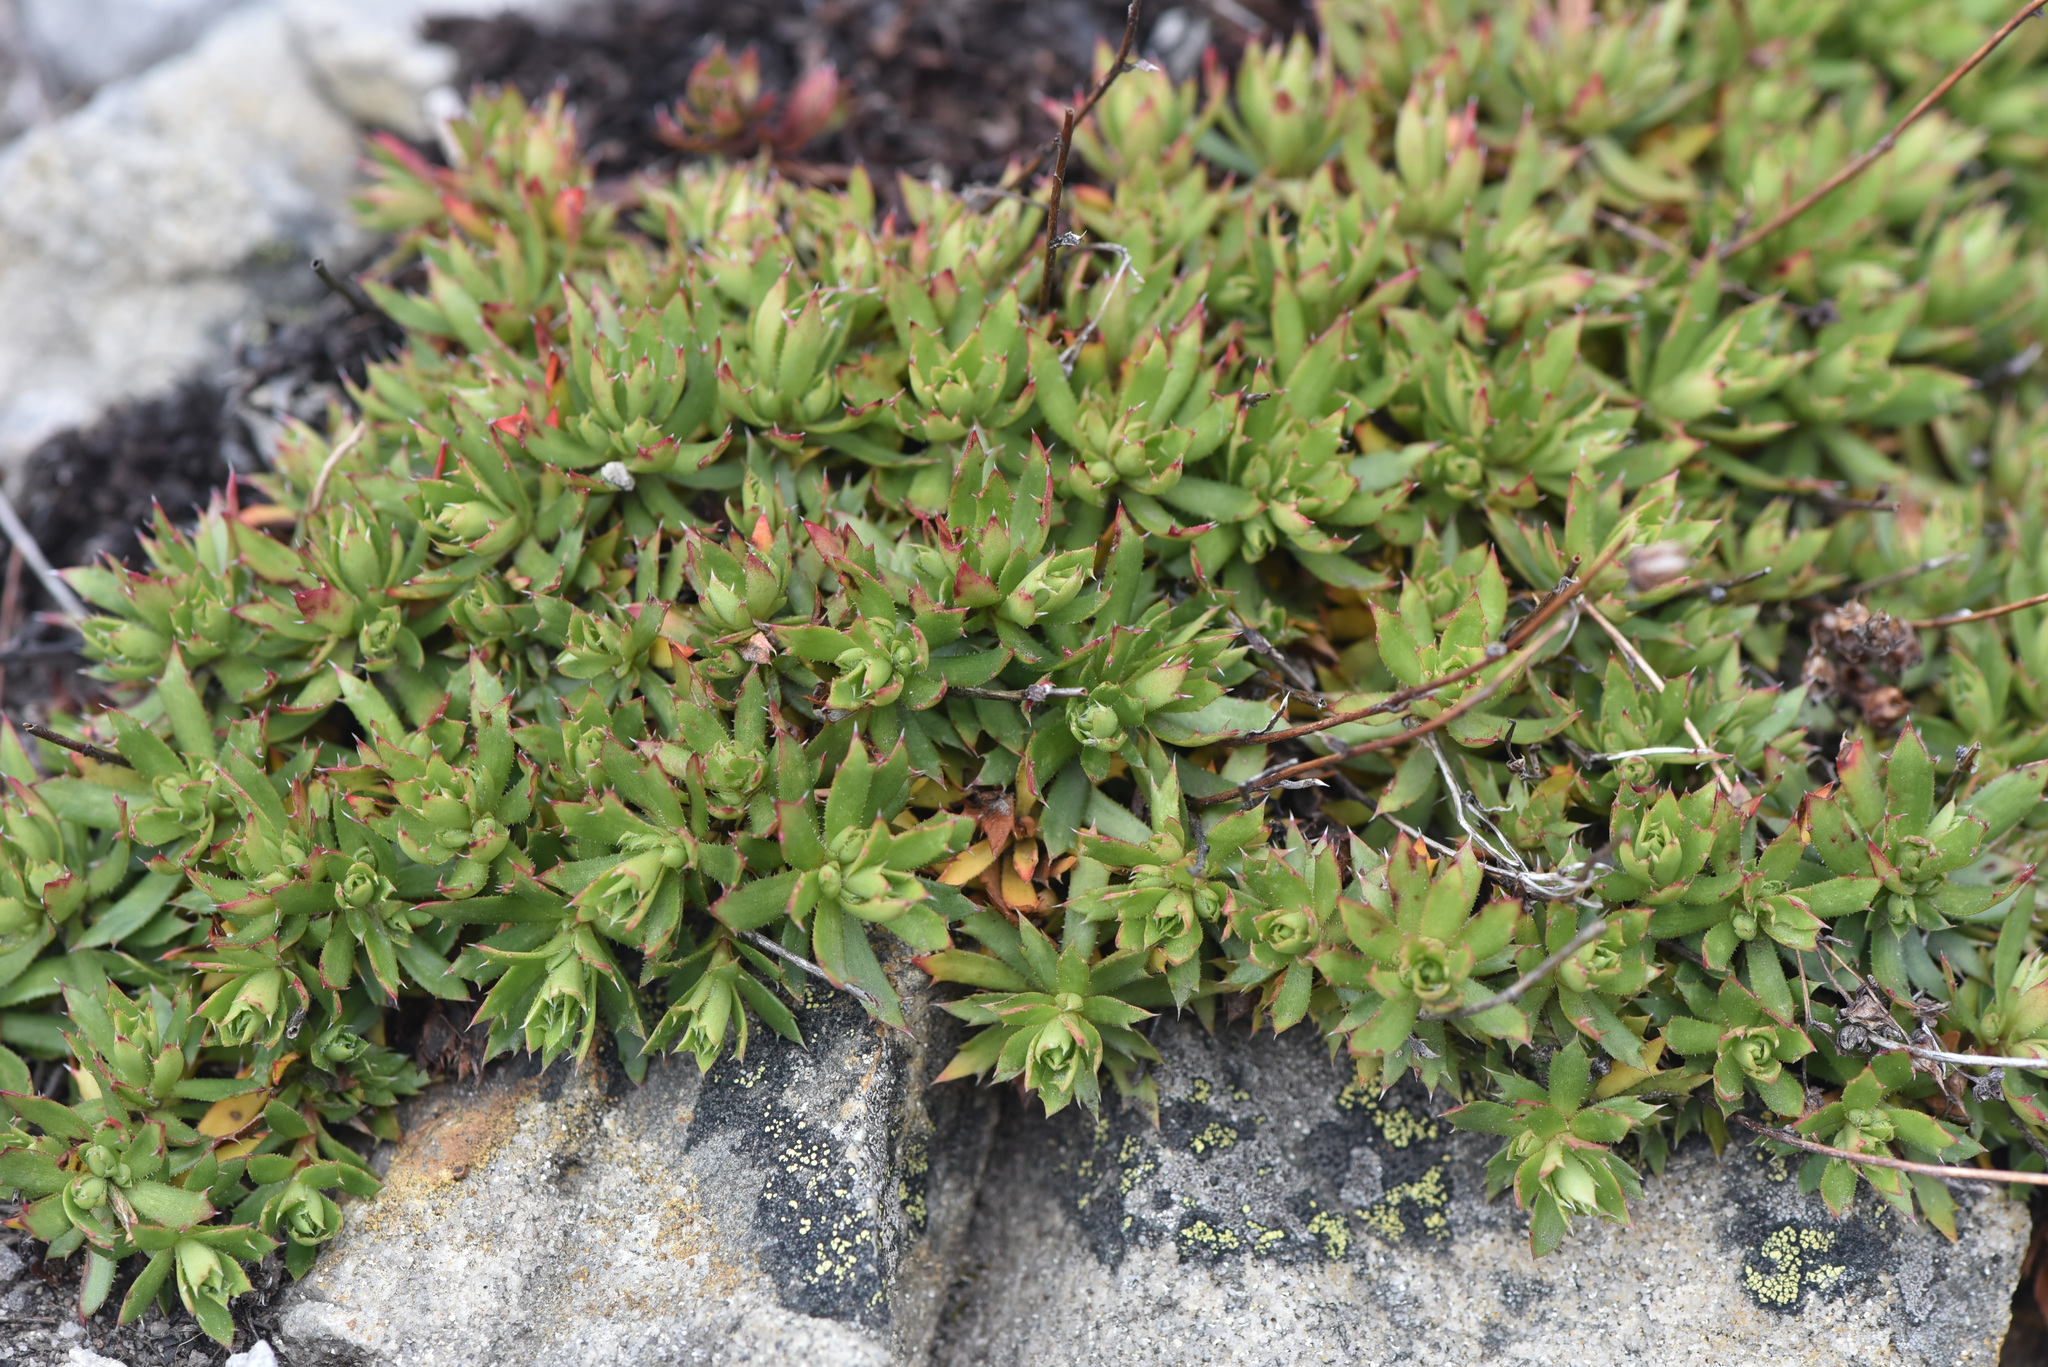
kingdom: Plantae
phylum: Tracheophyta
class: Magnoliopsida
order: Saxifragales
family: Saxifragaceae
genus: Saxifraga
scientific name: Saxifraga tricuspidata
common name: Prickly saxifrage
